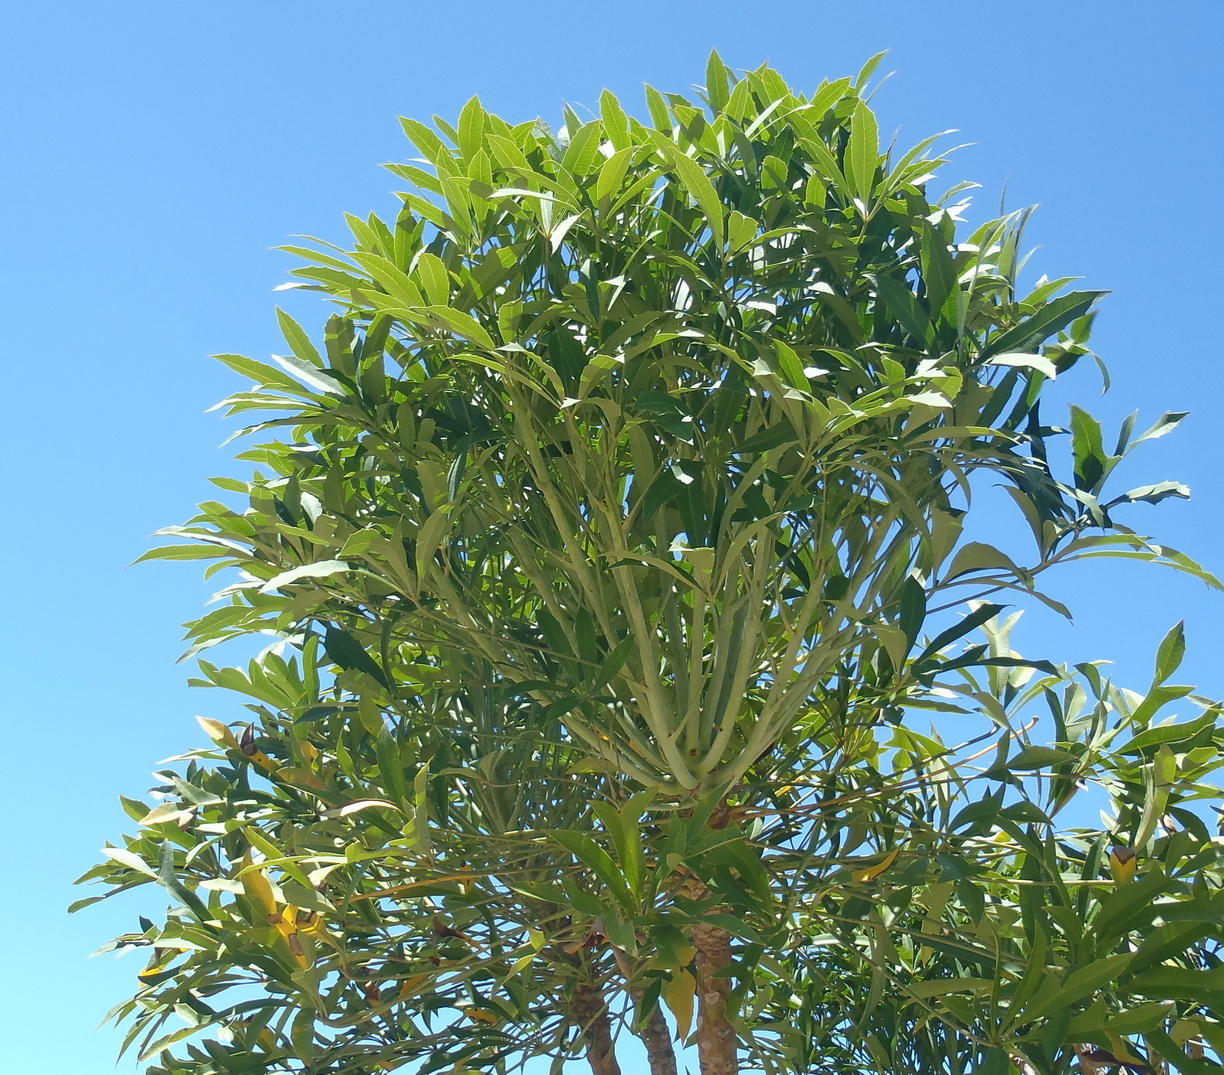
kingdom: Plantae
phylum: Tracheophyta
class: Magnoliopsida
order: Apiales
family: Araliaceae
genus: Cussonia
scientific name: Cussonia spicata
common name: Common cabbagetree
